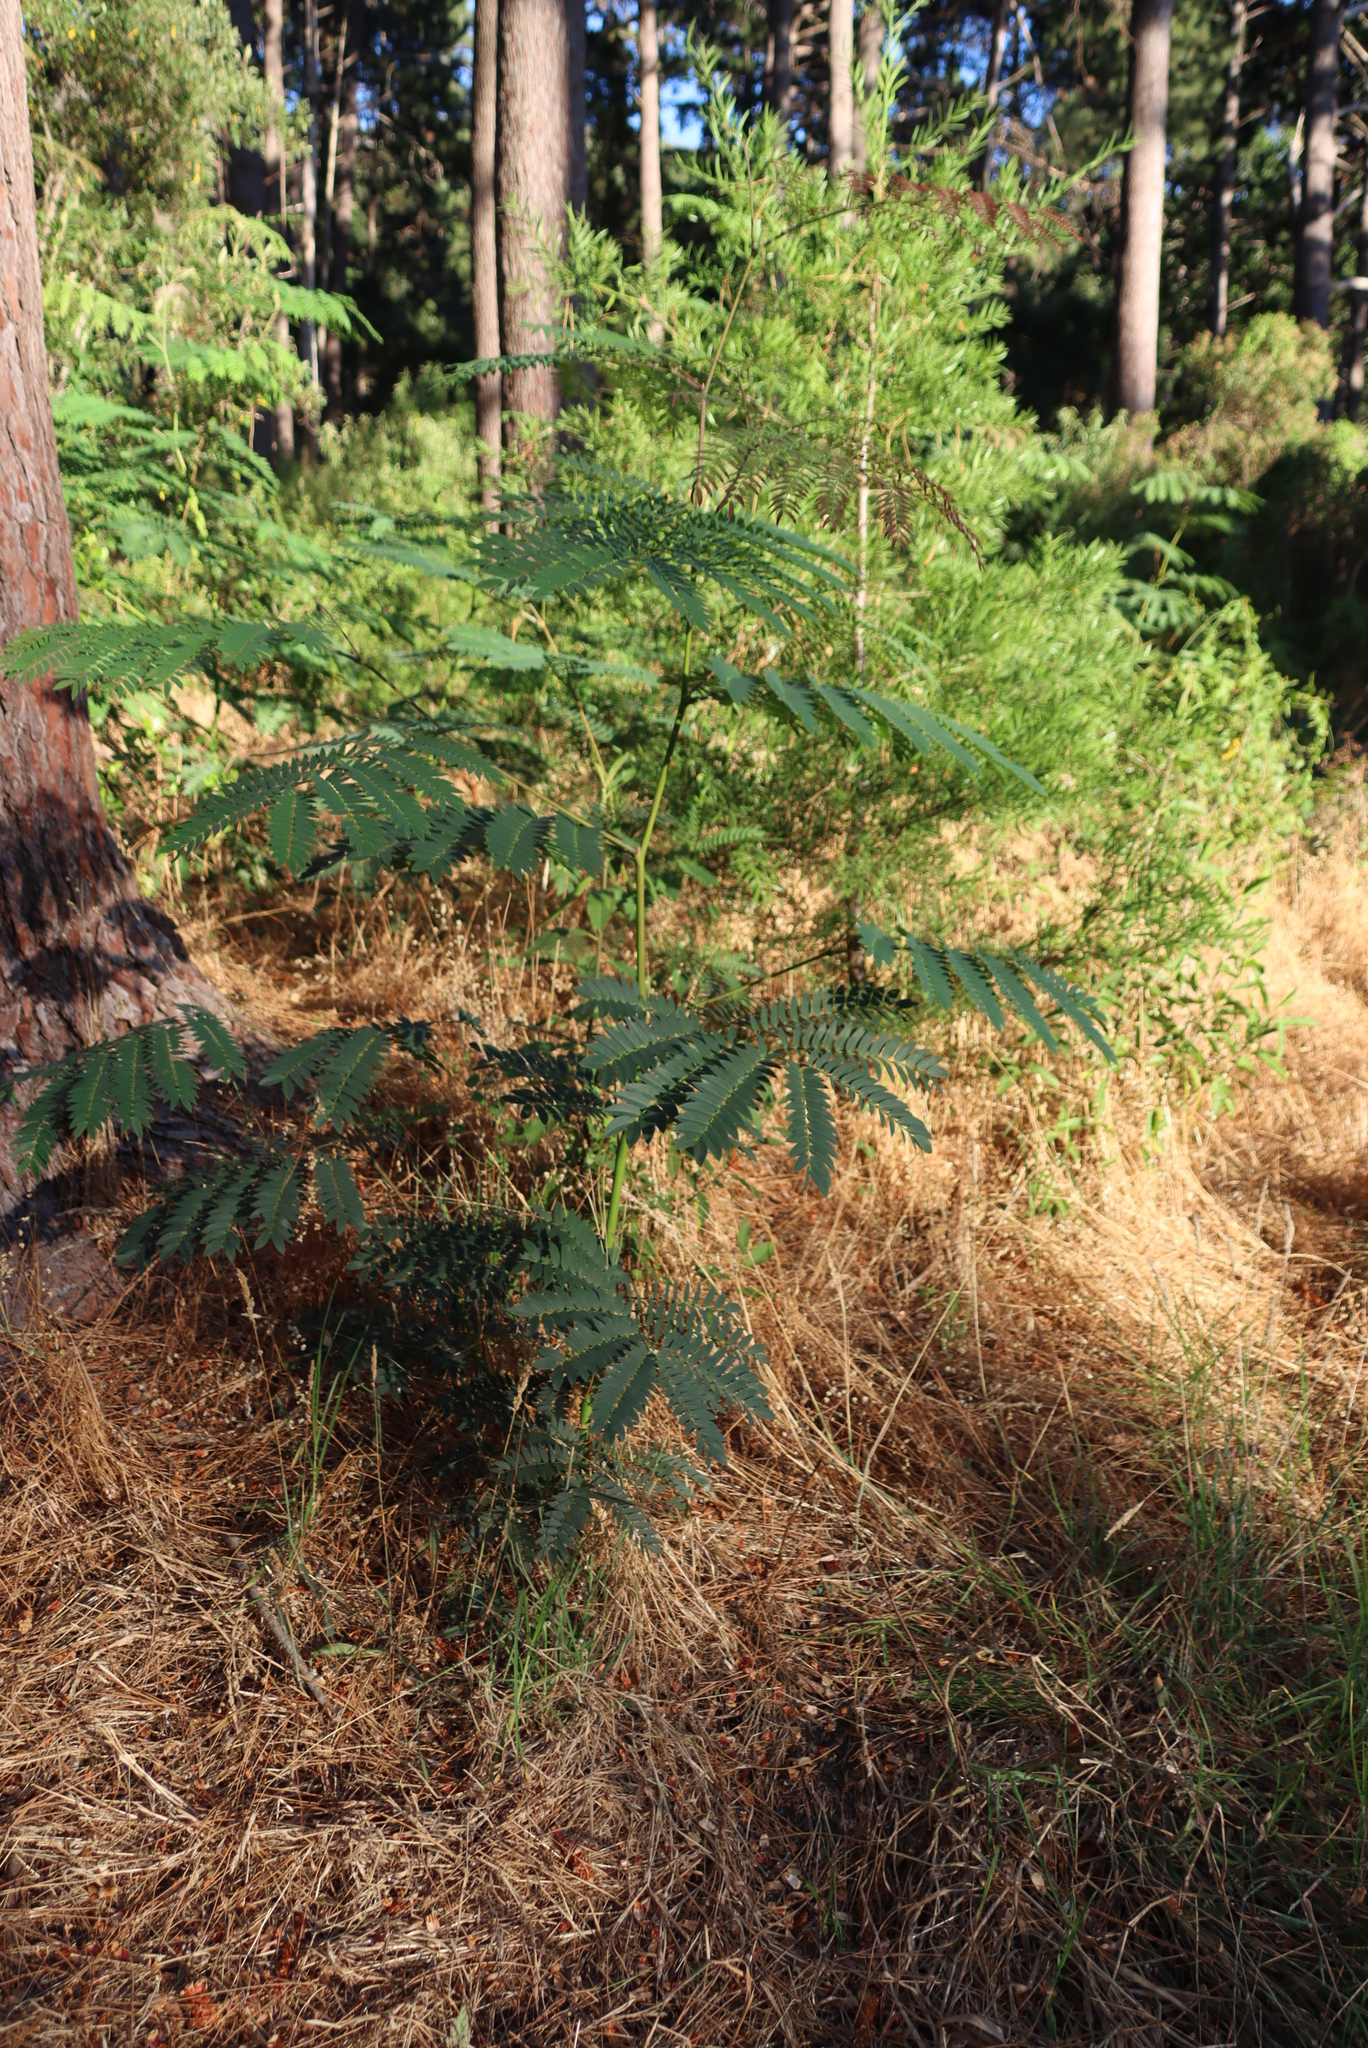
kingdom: Plantae
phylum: Tracheophyta
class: Magnoliopsida
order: Fabales
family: Fabaceae
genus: Acacia
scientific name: Acacia elata
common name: Cedar wattle
